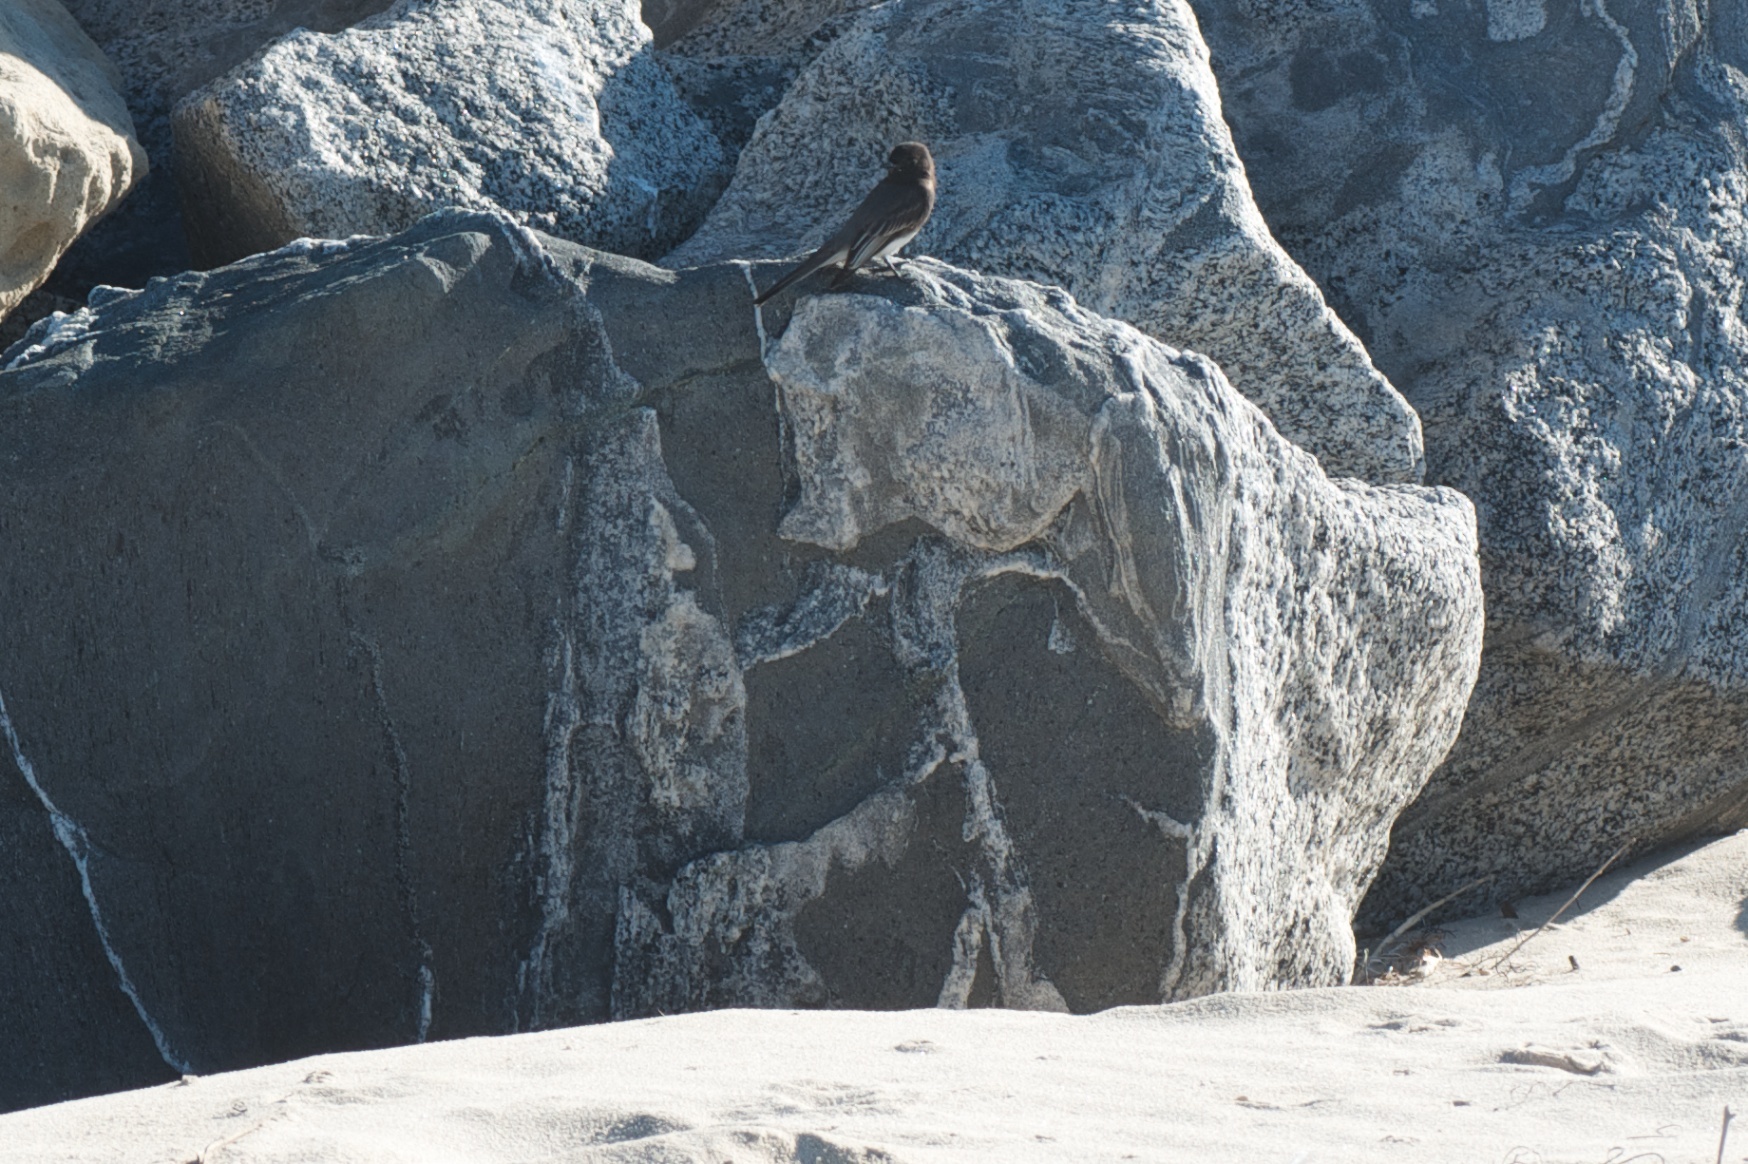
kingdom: Animalia
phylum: Chordata
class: Aves
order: Passeriformes
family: Tyrannidae
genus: Sayornis
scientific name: Sayornis nigricans
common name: Black phoebe
